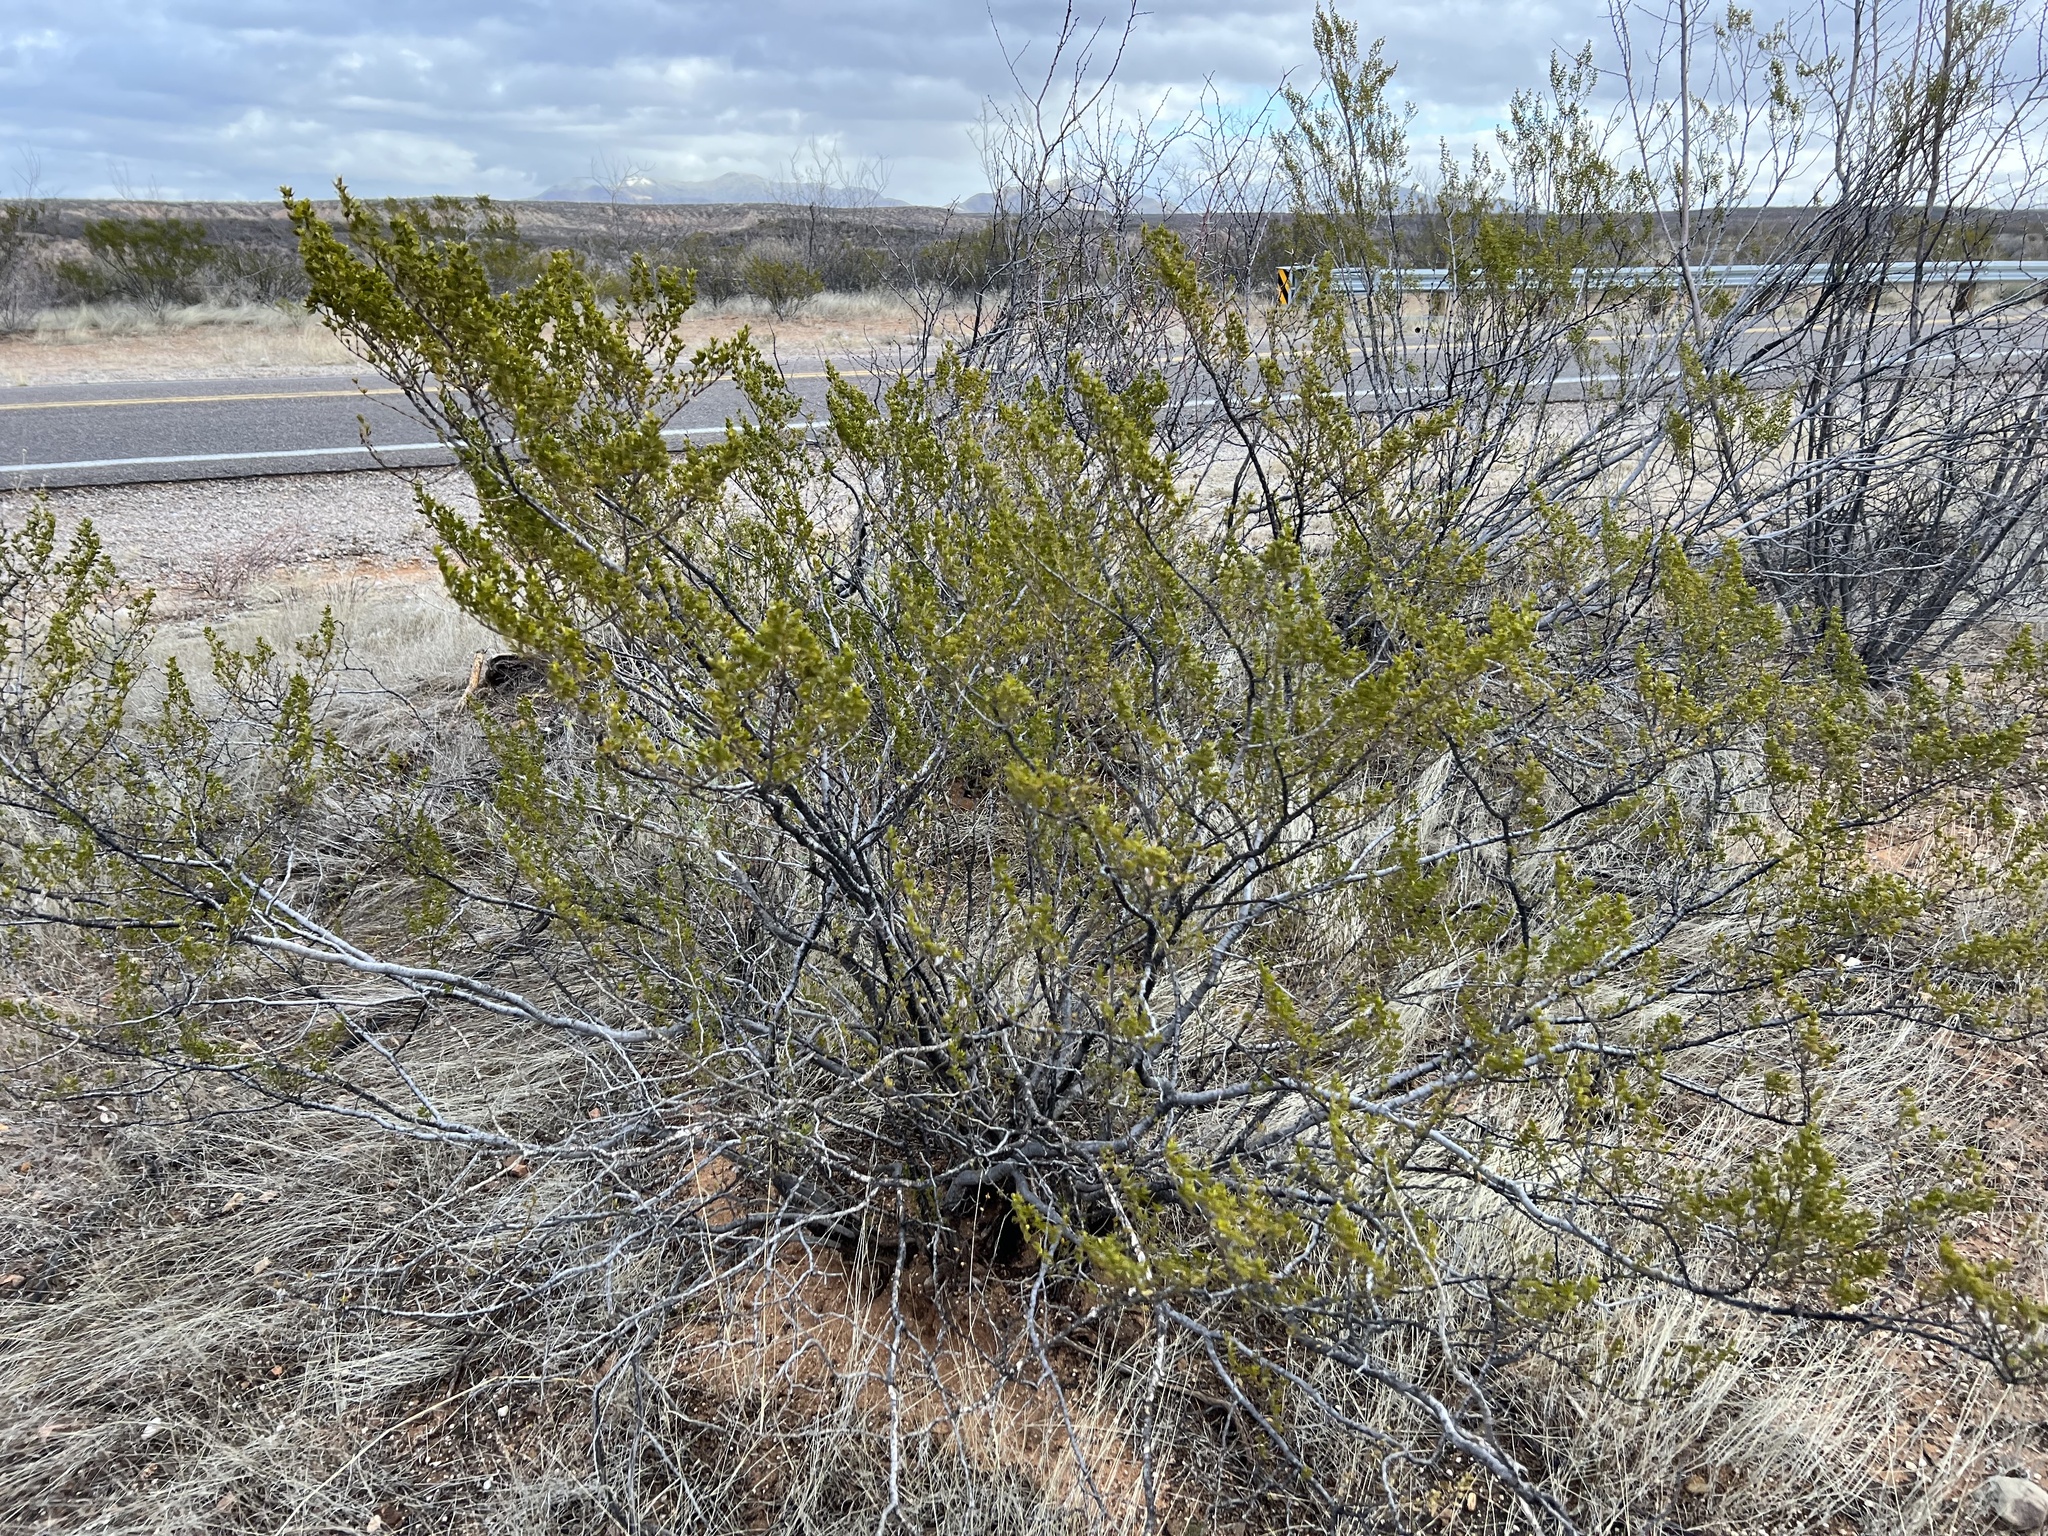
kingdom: Plantae
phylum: Tracheophyta
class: Magnoliopsida
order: Zygophyllales
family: Zygophyllaceae
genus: Larrea
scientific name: Larrea tridentata
